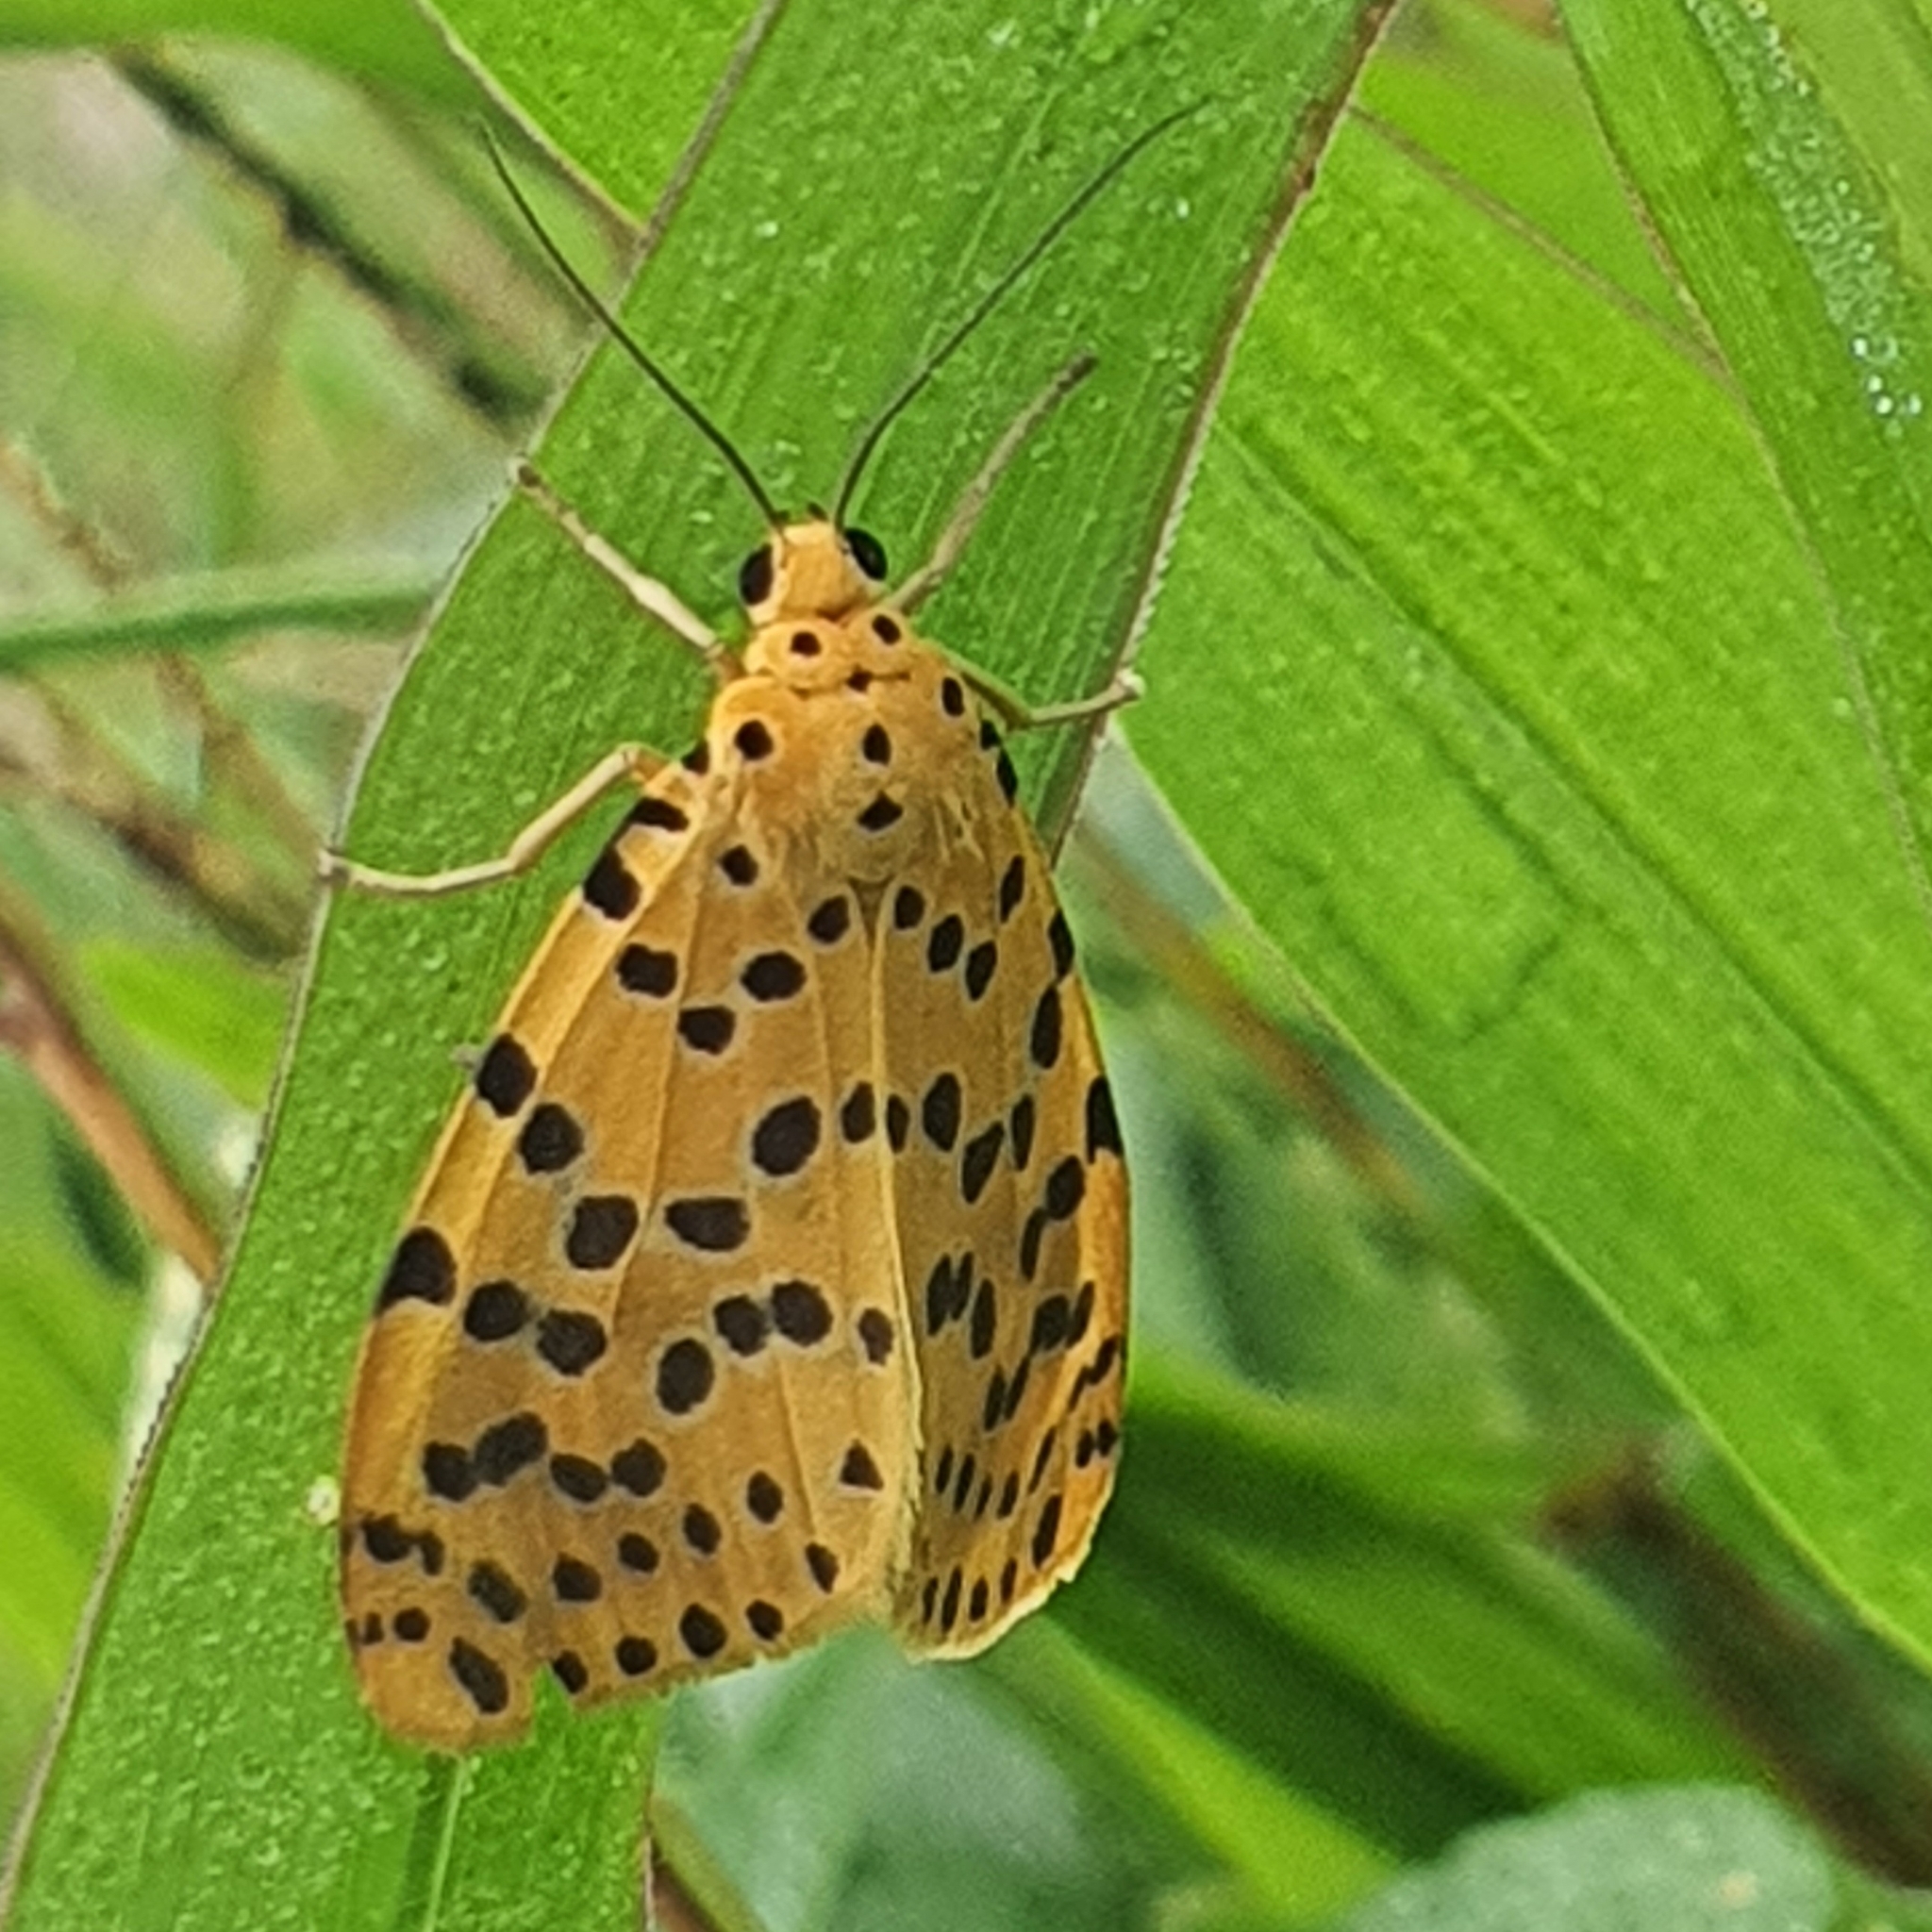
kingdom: Animalia
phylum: Arthropoda
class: Insecta
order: Lepidoptera
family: Erebidae
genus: Argina
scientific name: Argina astrea
